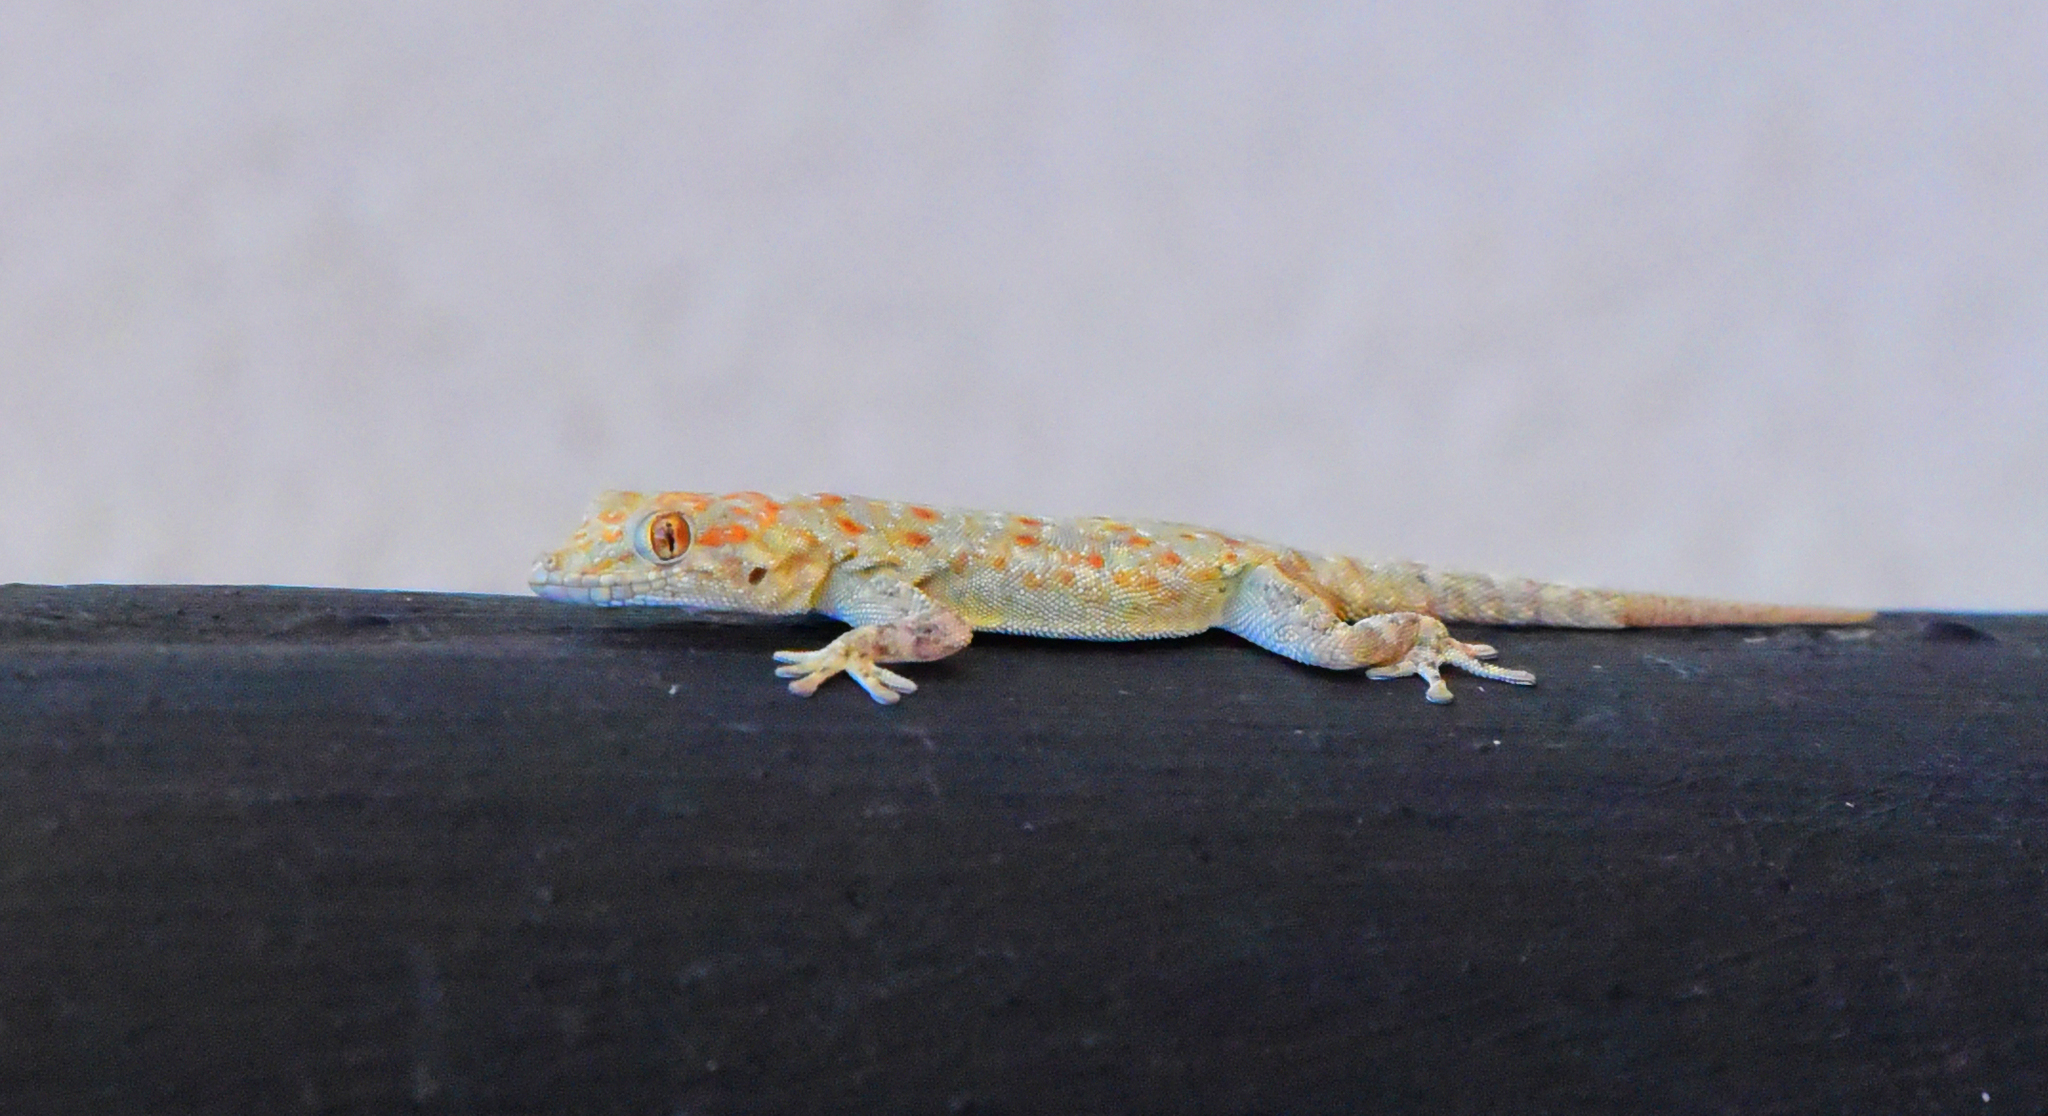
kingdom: Animalia
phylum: Chordata
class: Squamata
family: Gekkonidae
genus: Rhoptropus
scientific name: Rhoptropus boultoni
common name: Boulton’s namib day gecko
